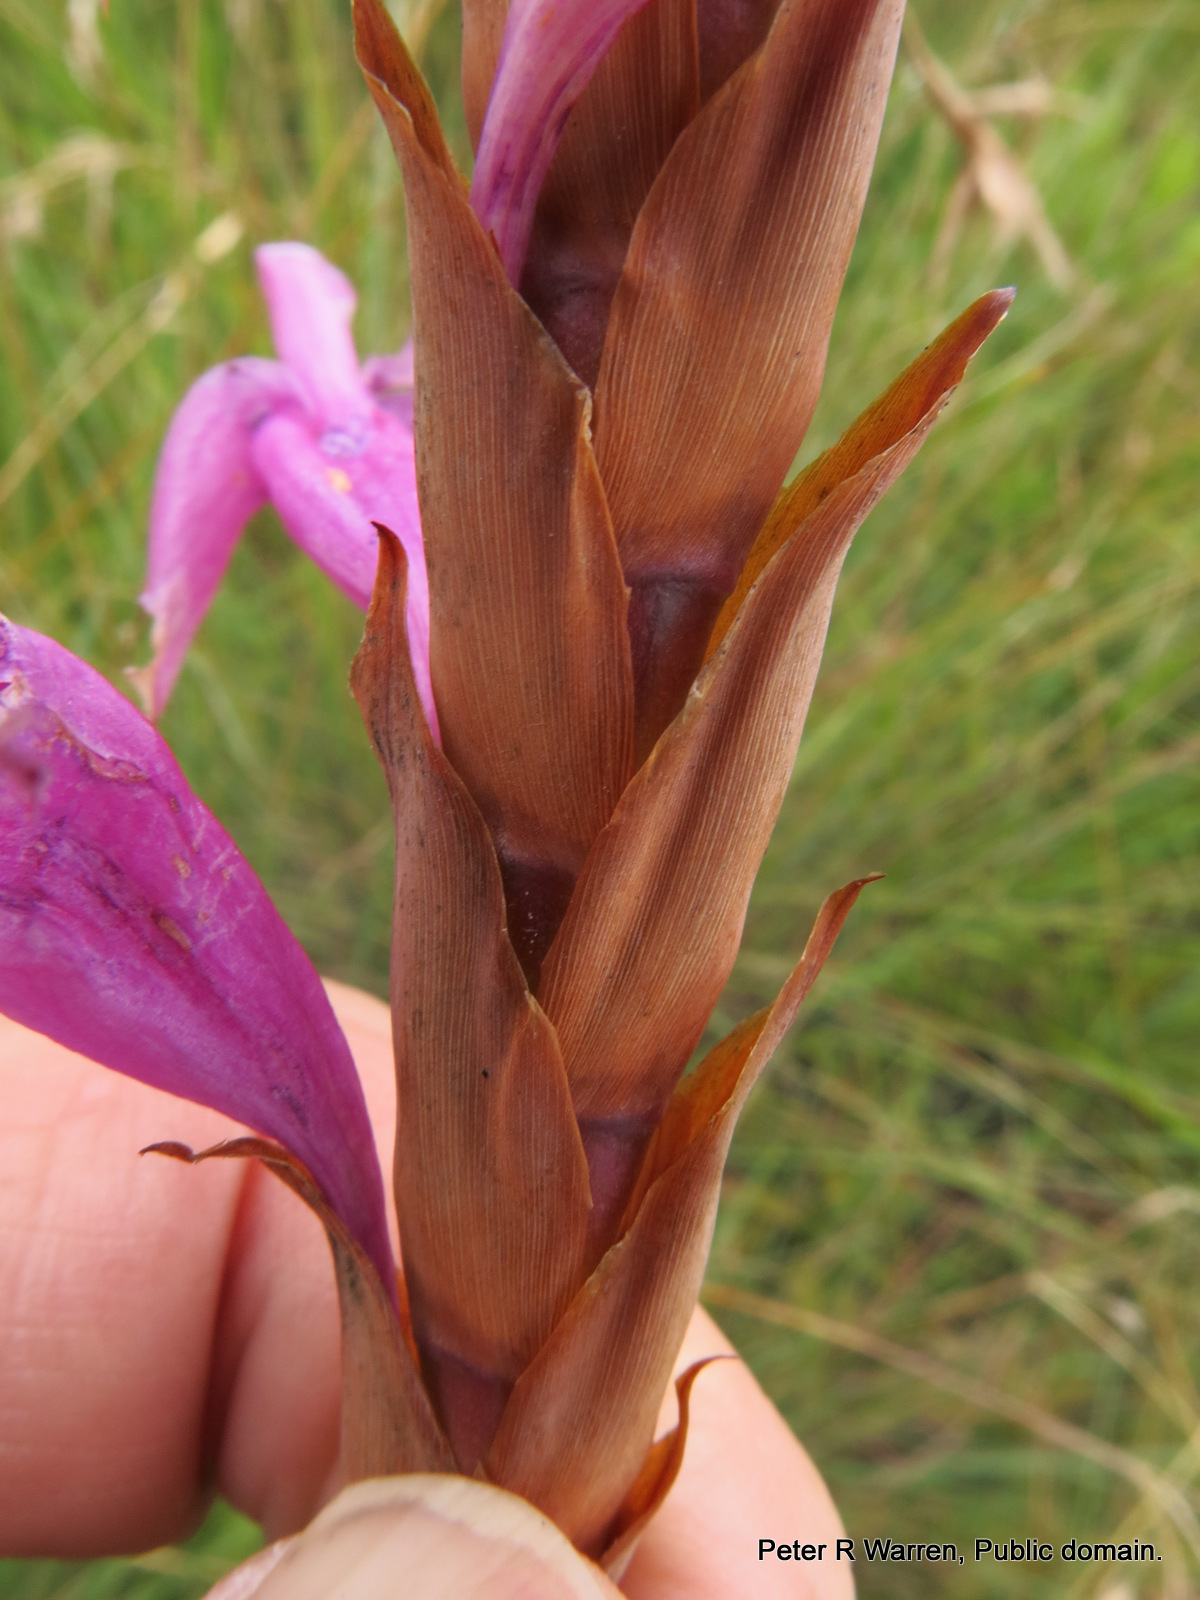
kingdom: Plantae
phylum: Tracheophyta
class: Liliopsida
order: Asparagales
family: Iridaceae
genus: Watsonia
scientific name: Watsonia confusa
